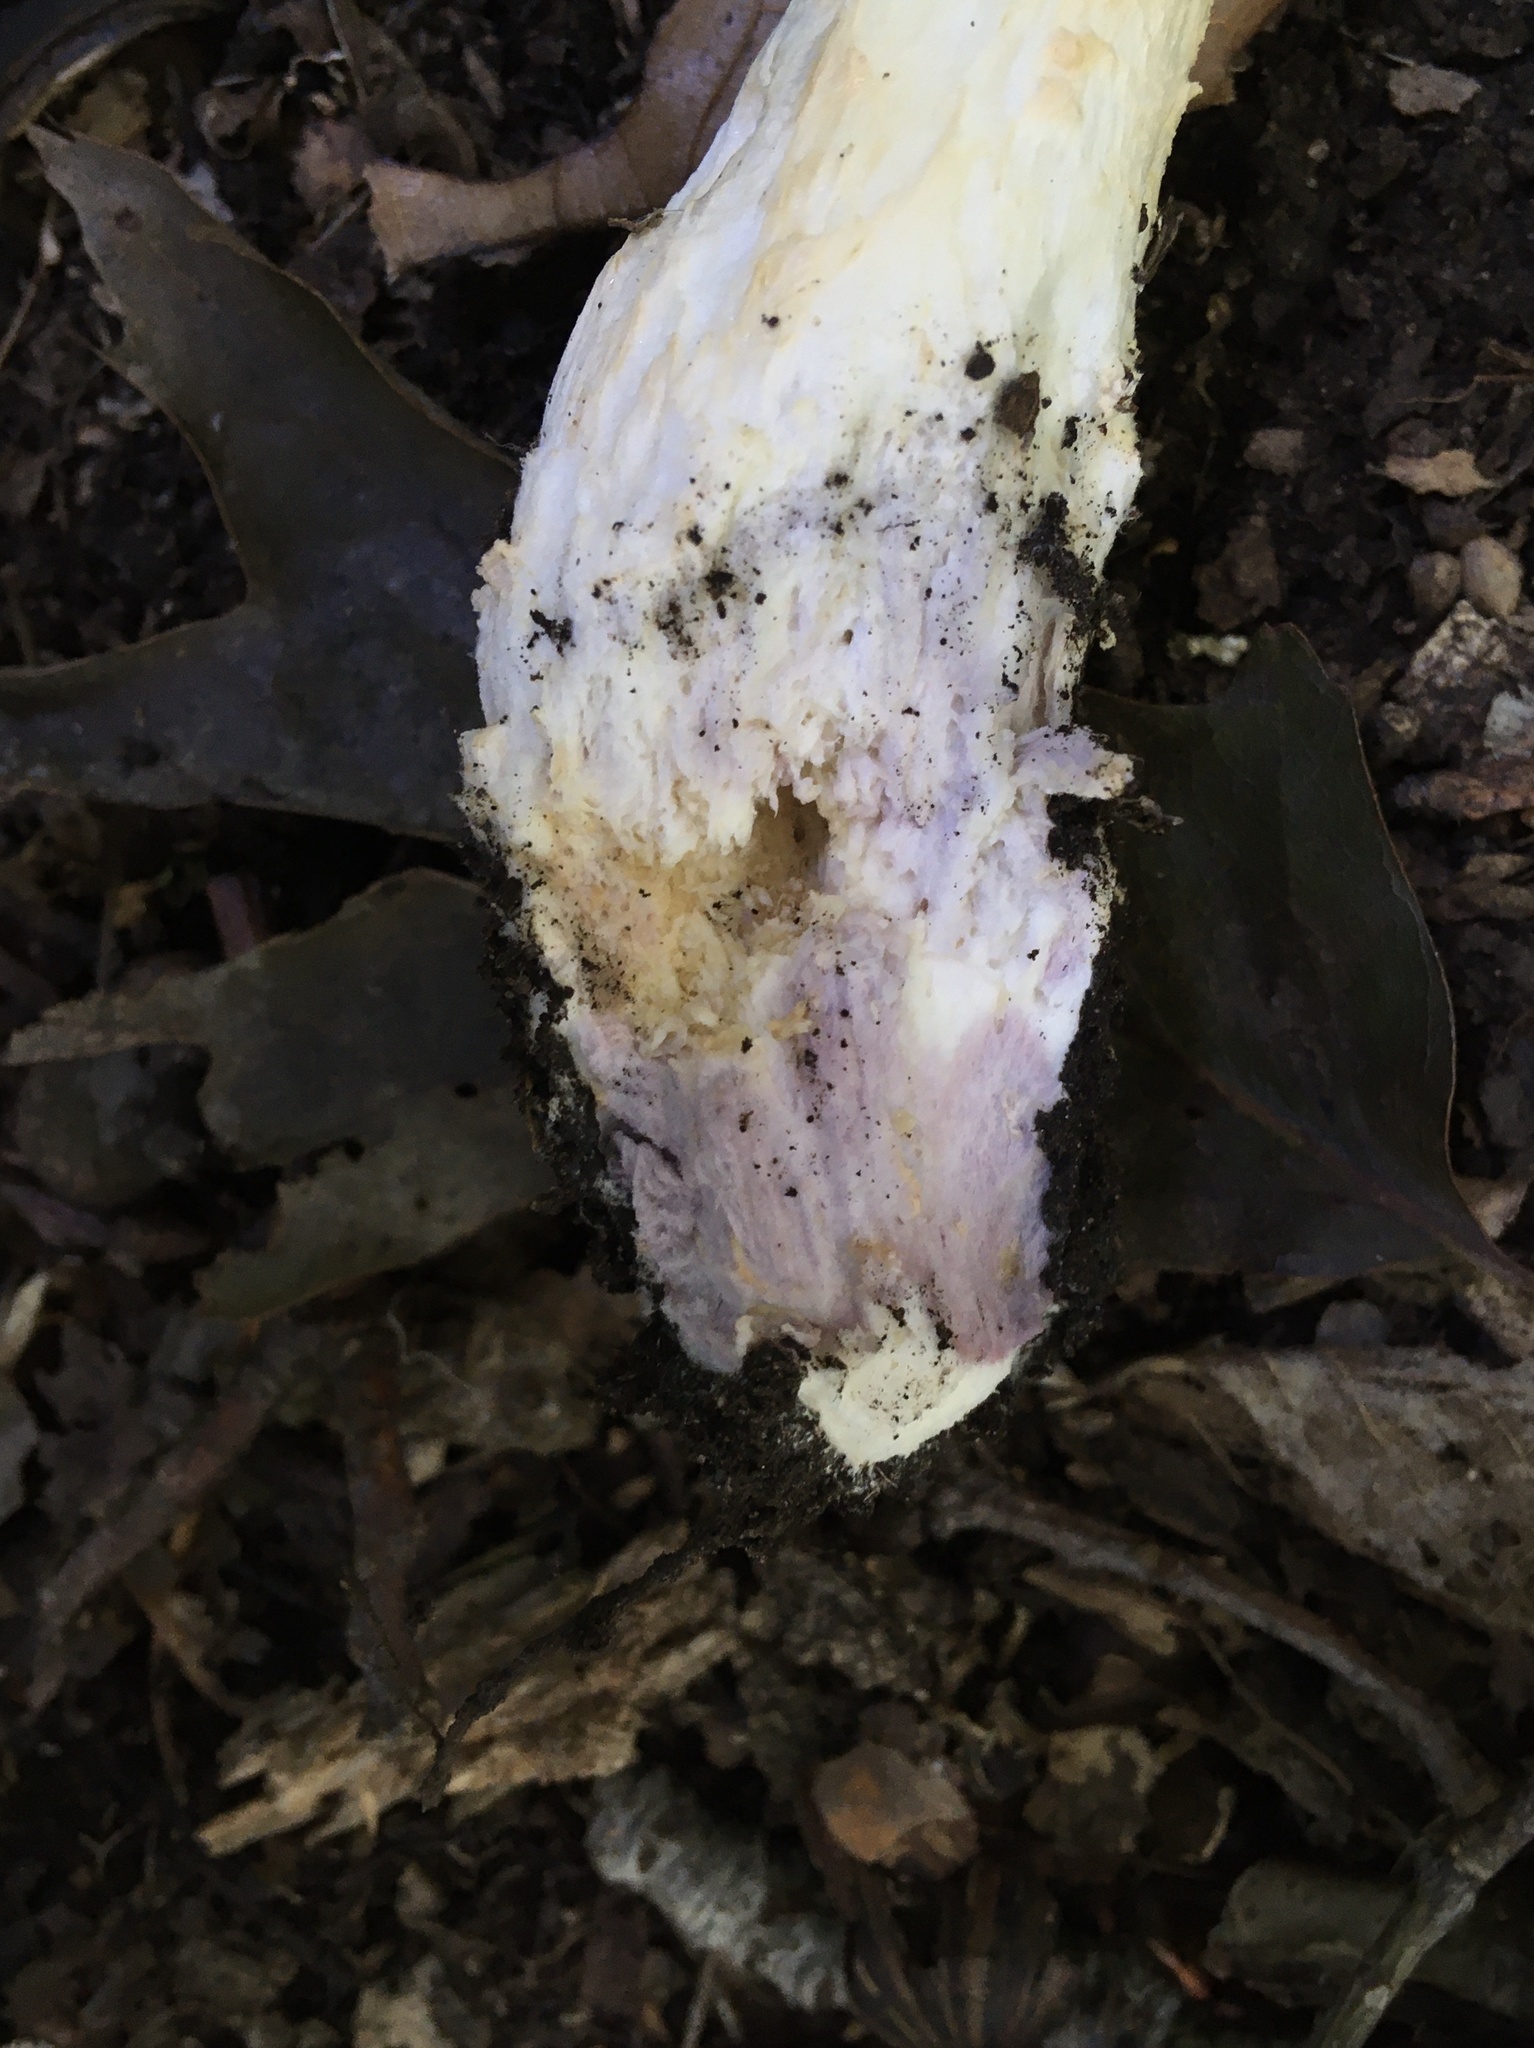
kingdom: Fungi
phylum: Basidiomycota
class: Agaricomycetes
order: Agaricales
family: Amanitaceae
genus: Amanita
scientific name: Amanita canescens
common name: Golden threads lepidella
